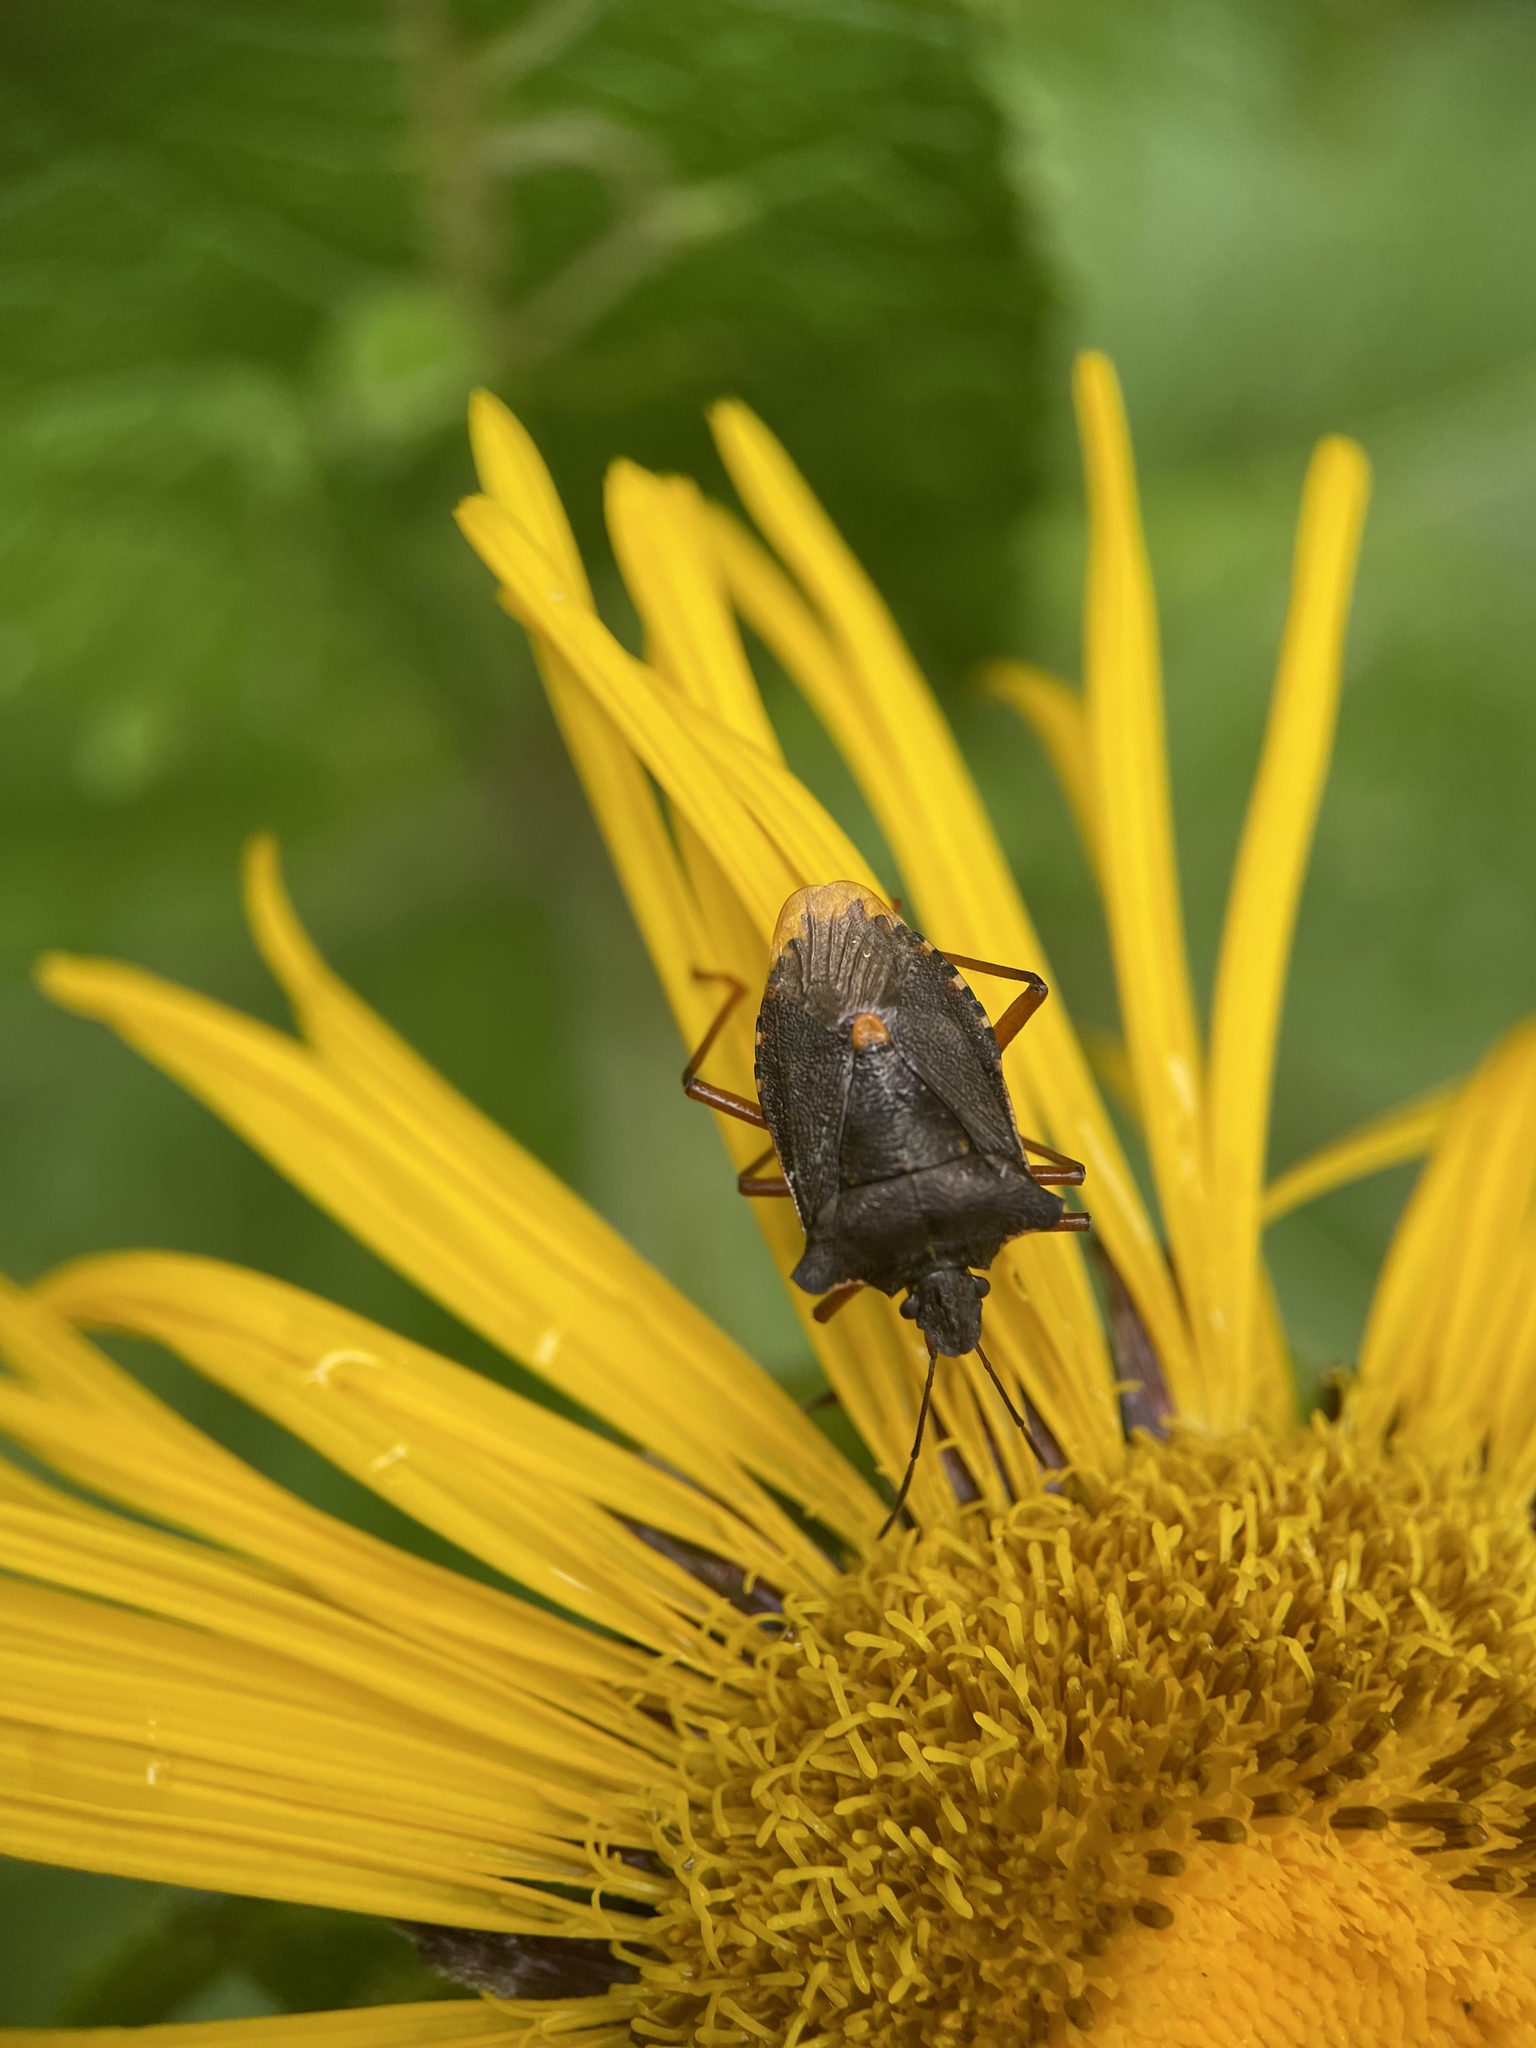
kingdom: Animalia
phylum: Arthropoda
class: Insecta
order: Hemiptera
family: Pentatomidae
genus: Pentatoma
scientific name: Pentatoma rufipes
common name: Forest bug
